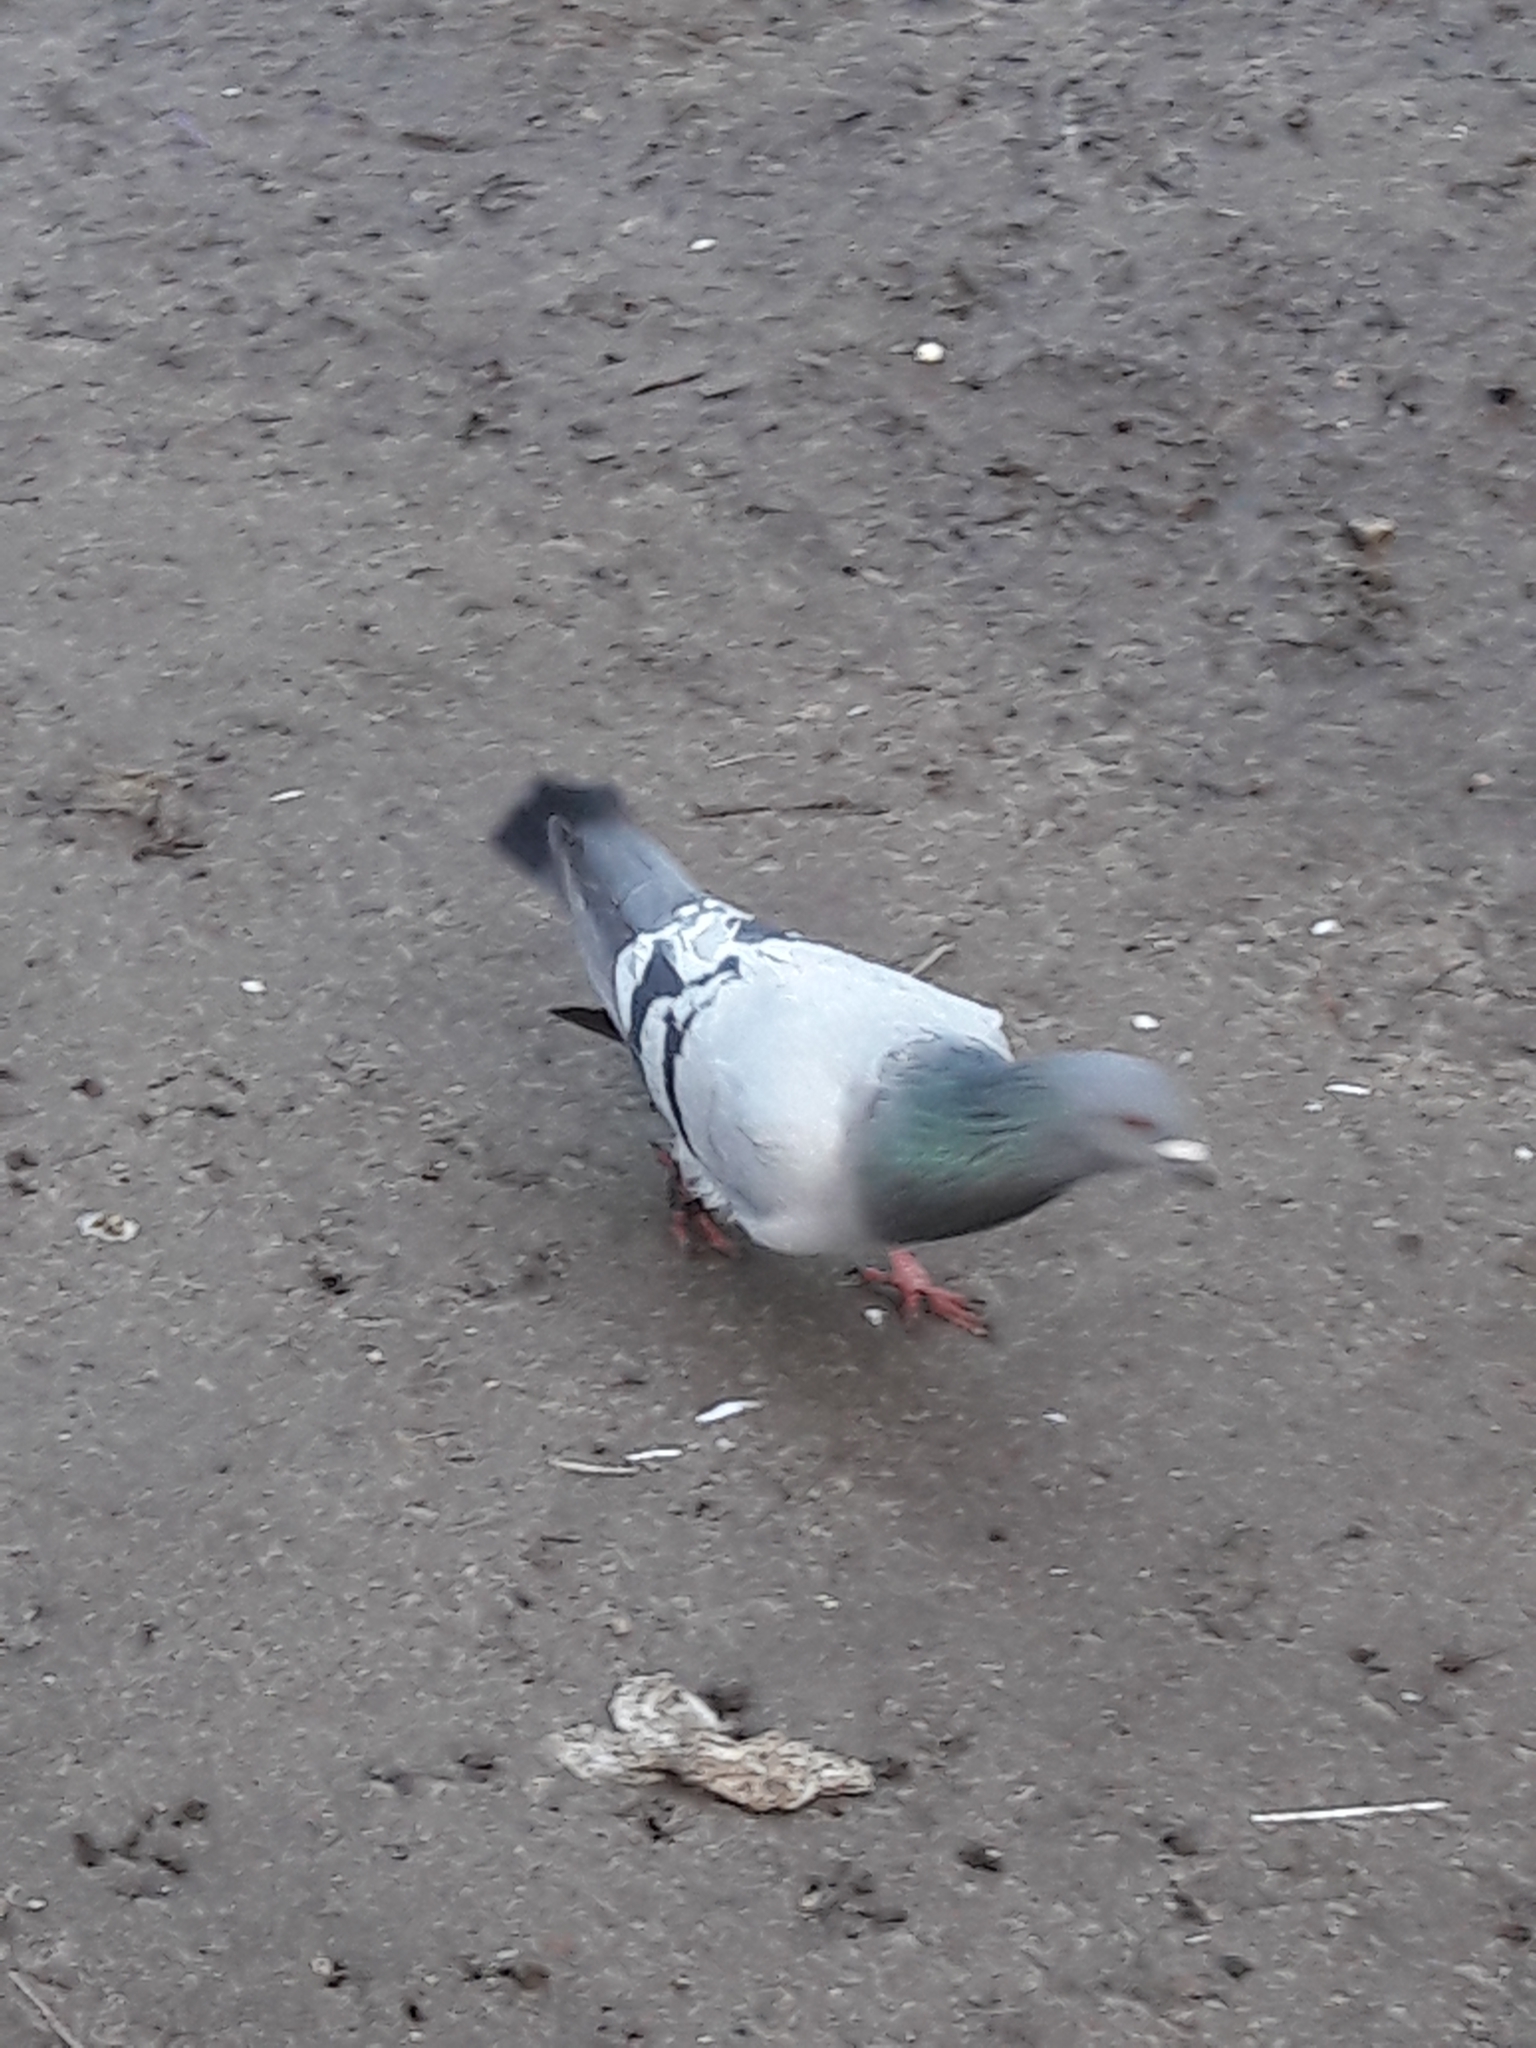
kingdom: Animalia
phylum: Chordata
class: Aves
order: Columbiformes
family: Columbidae
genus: Columba
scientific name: Columba livia
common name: Rock pigeon
